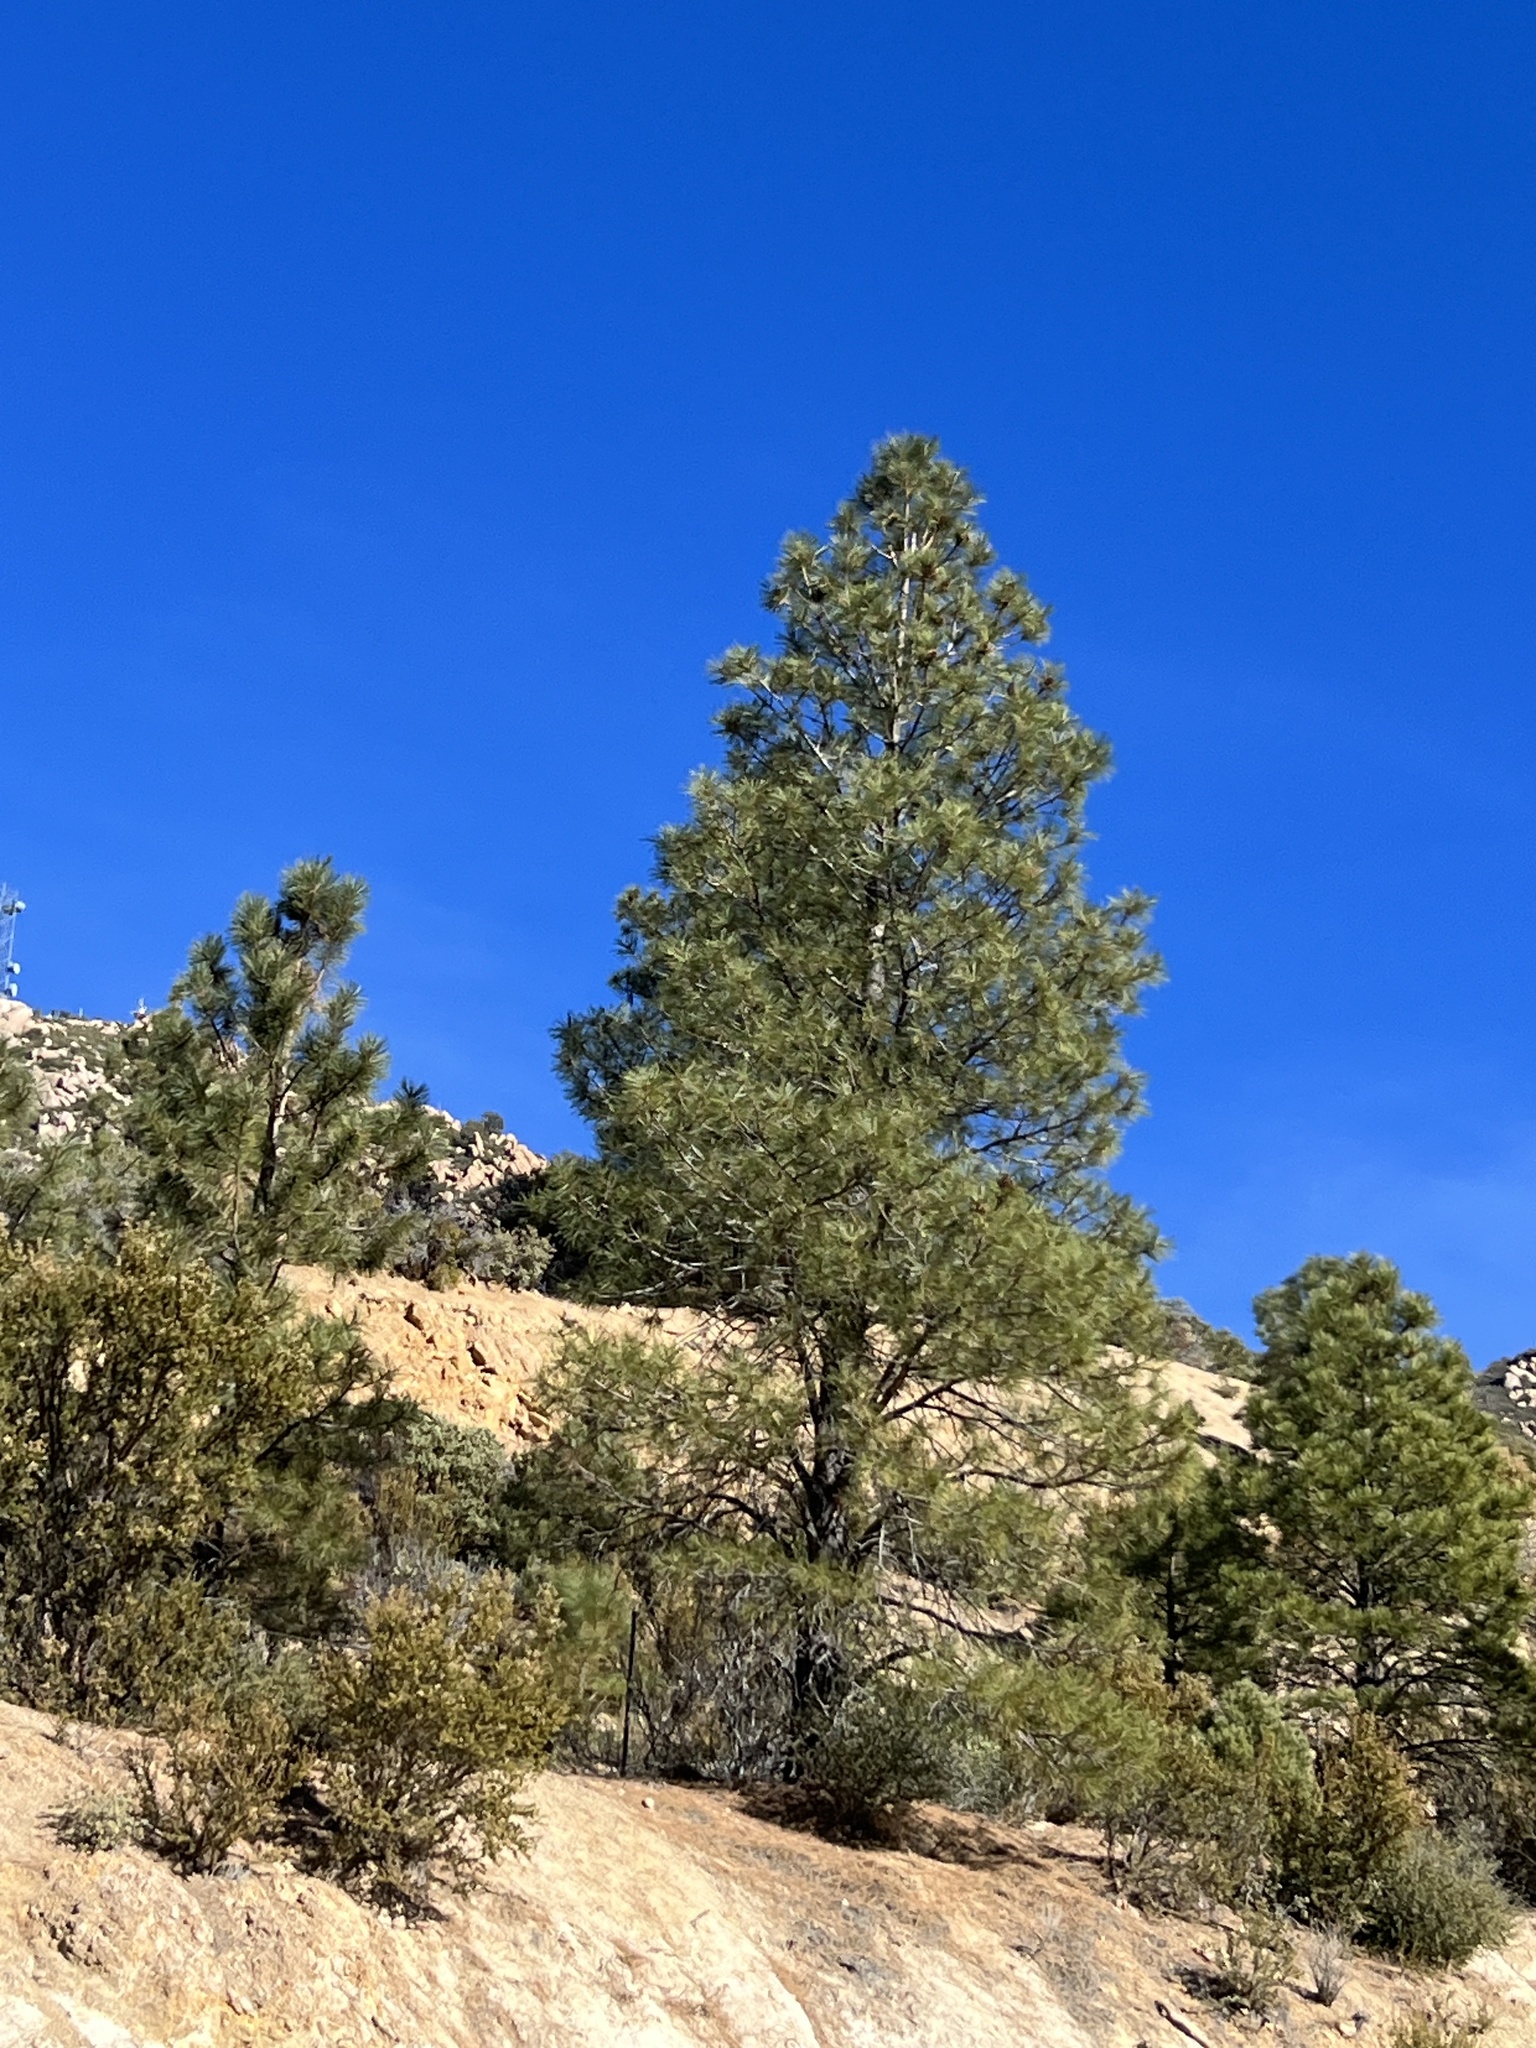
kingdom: Plantae
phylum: Tracheophyta
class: Pinopsida
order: Pinales
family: Pinaceae
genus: Pinus
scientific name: Pinus ponderosa
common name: Western yellow-pine
